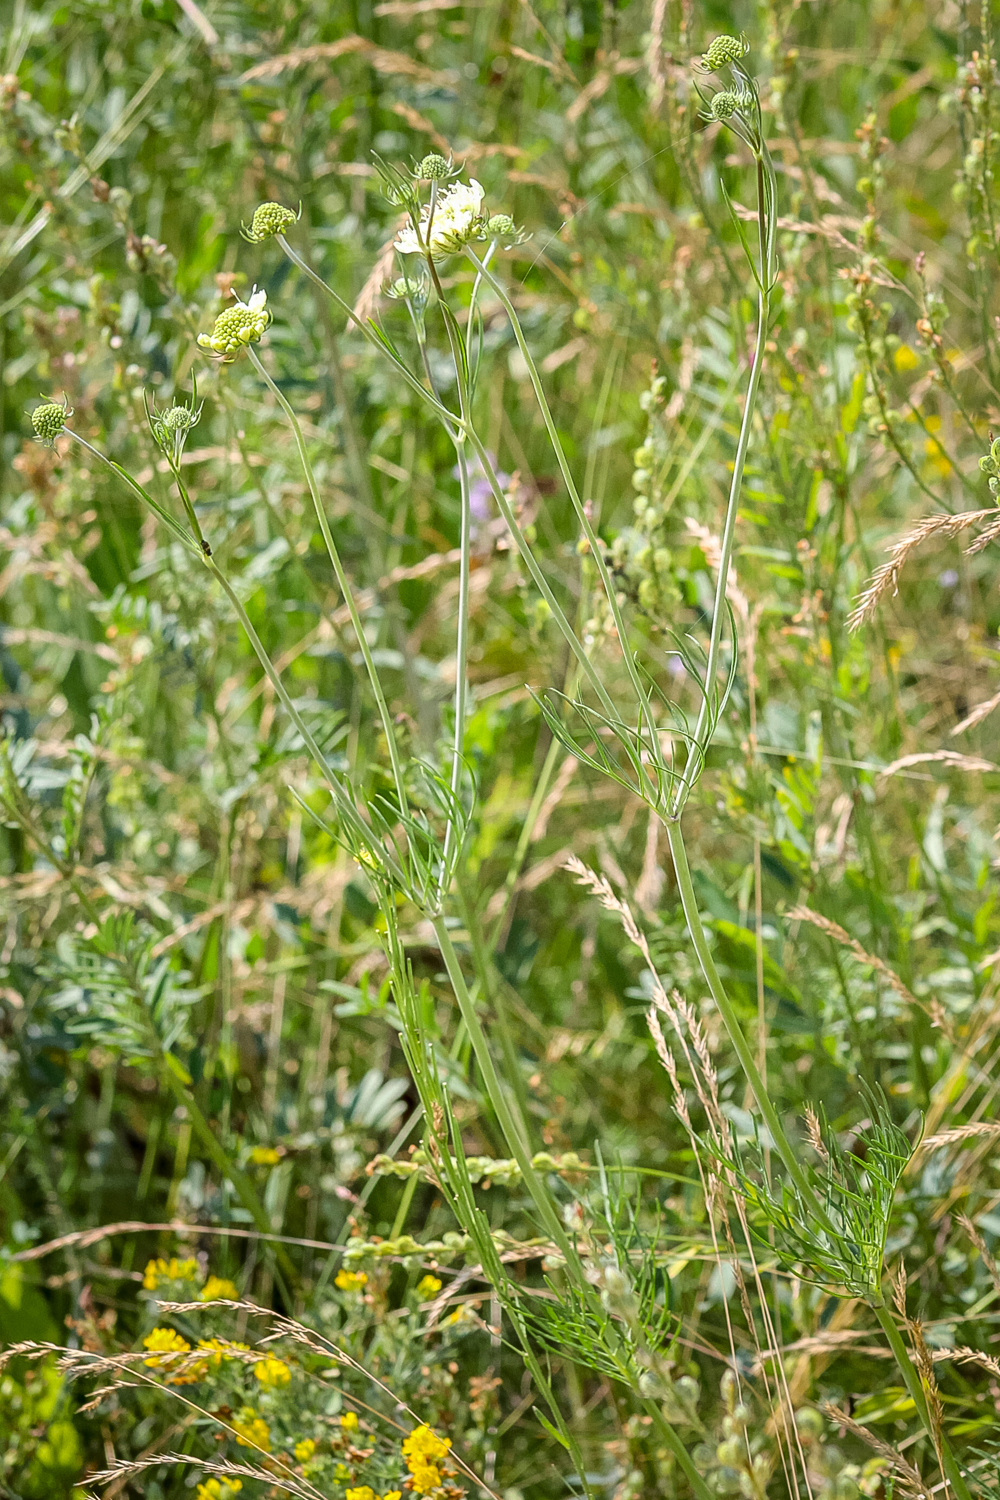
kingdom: Plantae
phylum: Tracheophyta
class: Magnoliopsida
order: Dipsacales
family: Caprifoliaceae
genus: Scabiosa
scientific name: Scabiosa ochroleuca
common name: Cream pincushions
